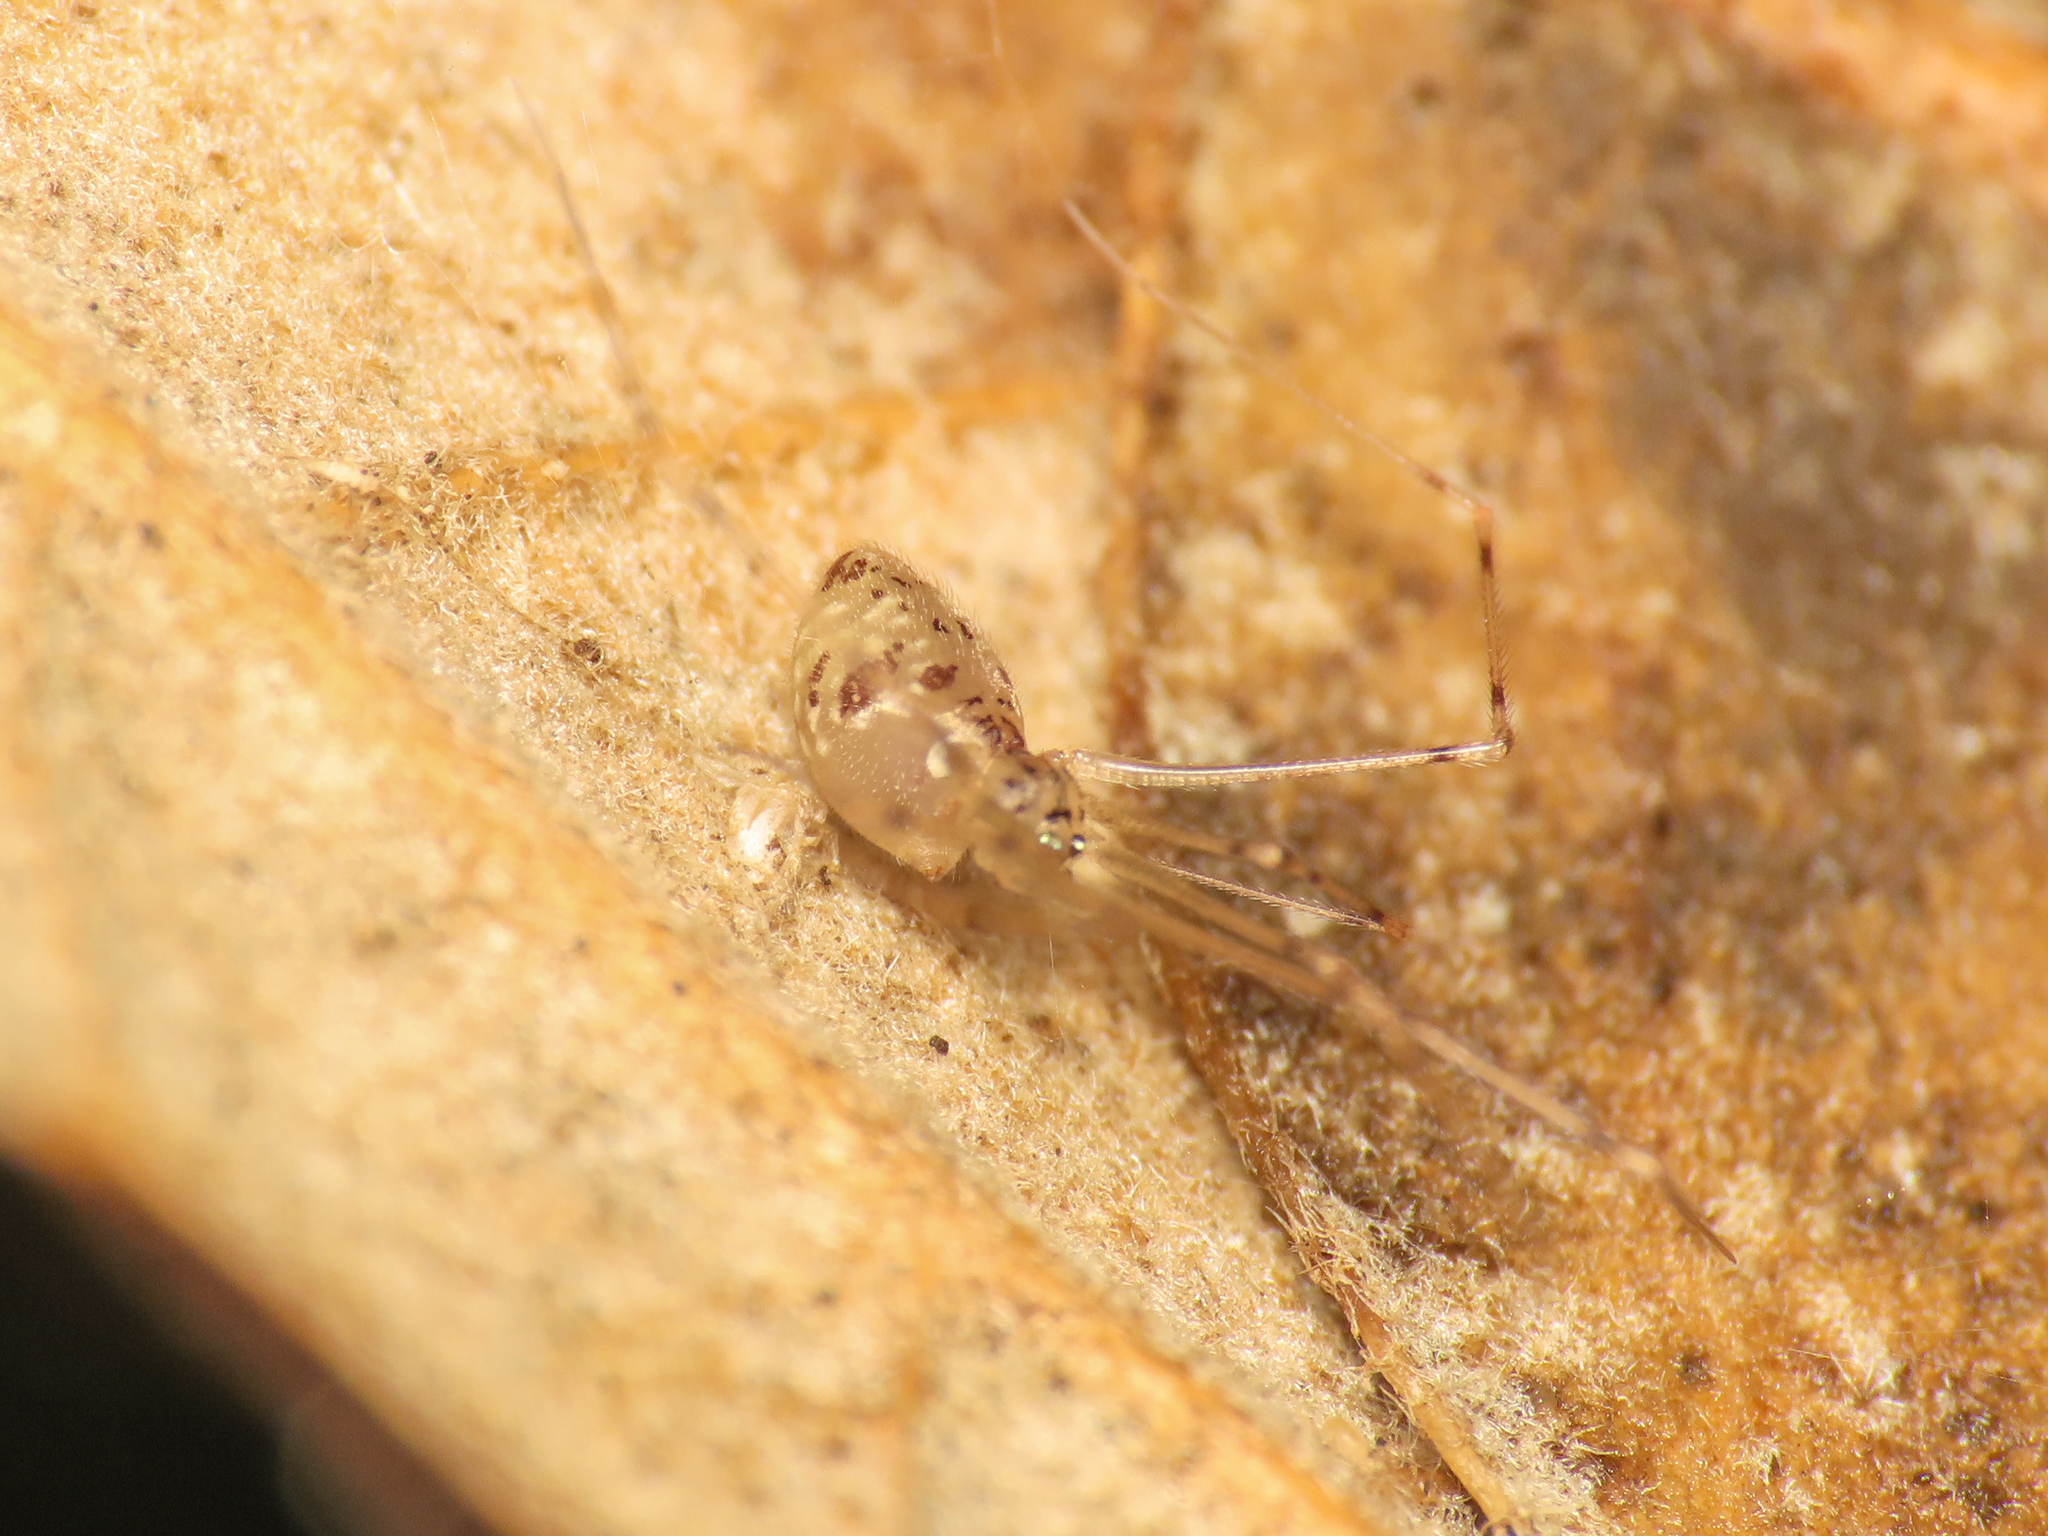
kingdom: Animalia
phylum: Arthropoda
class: Arachnida
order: Araneae
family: Pholcidae
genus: Spermophorides
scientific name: Spermophorides elevata
